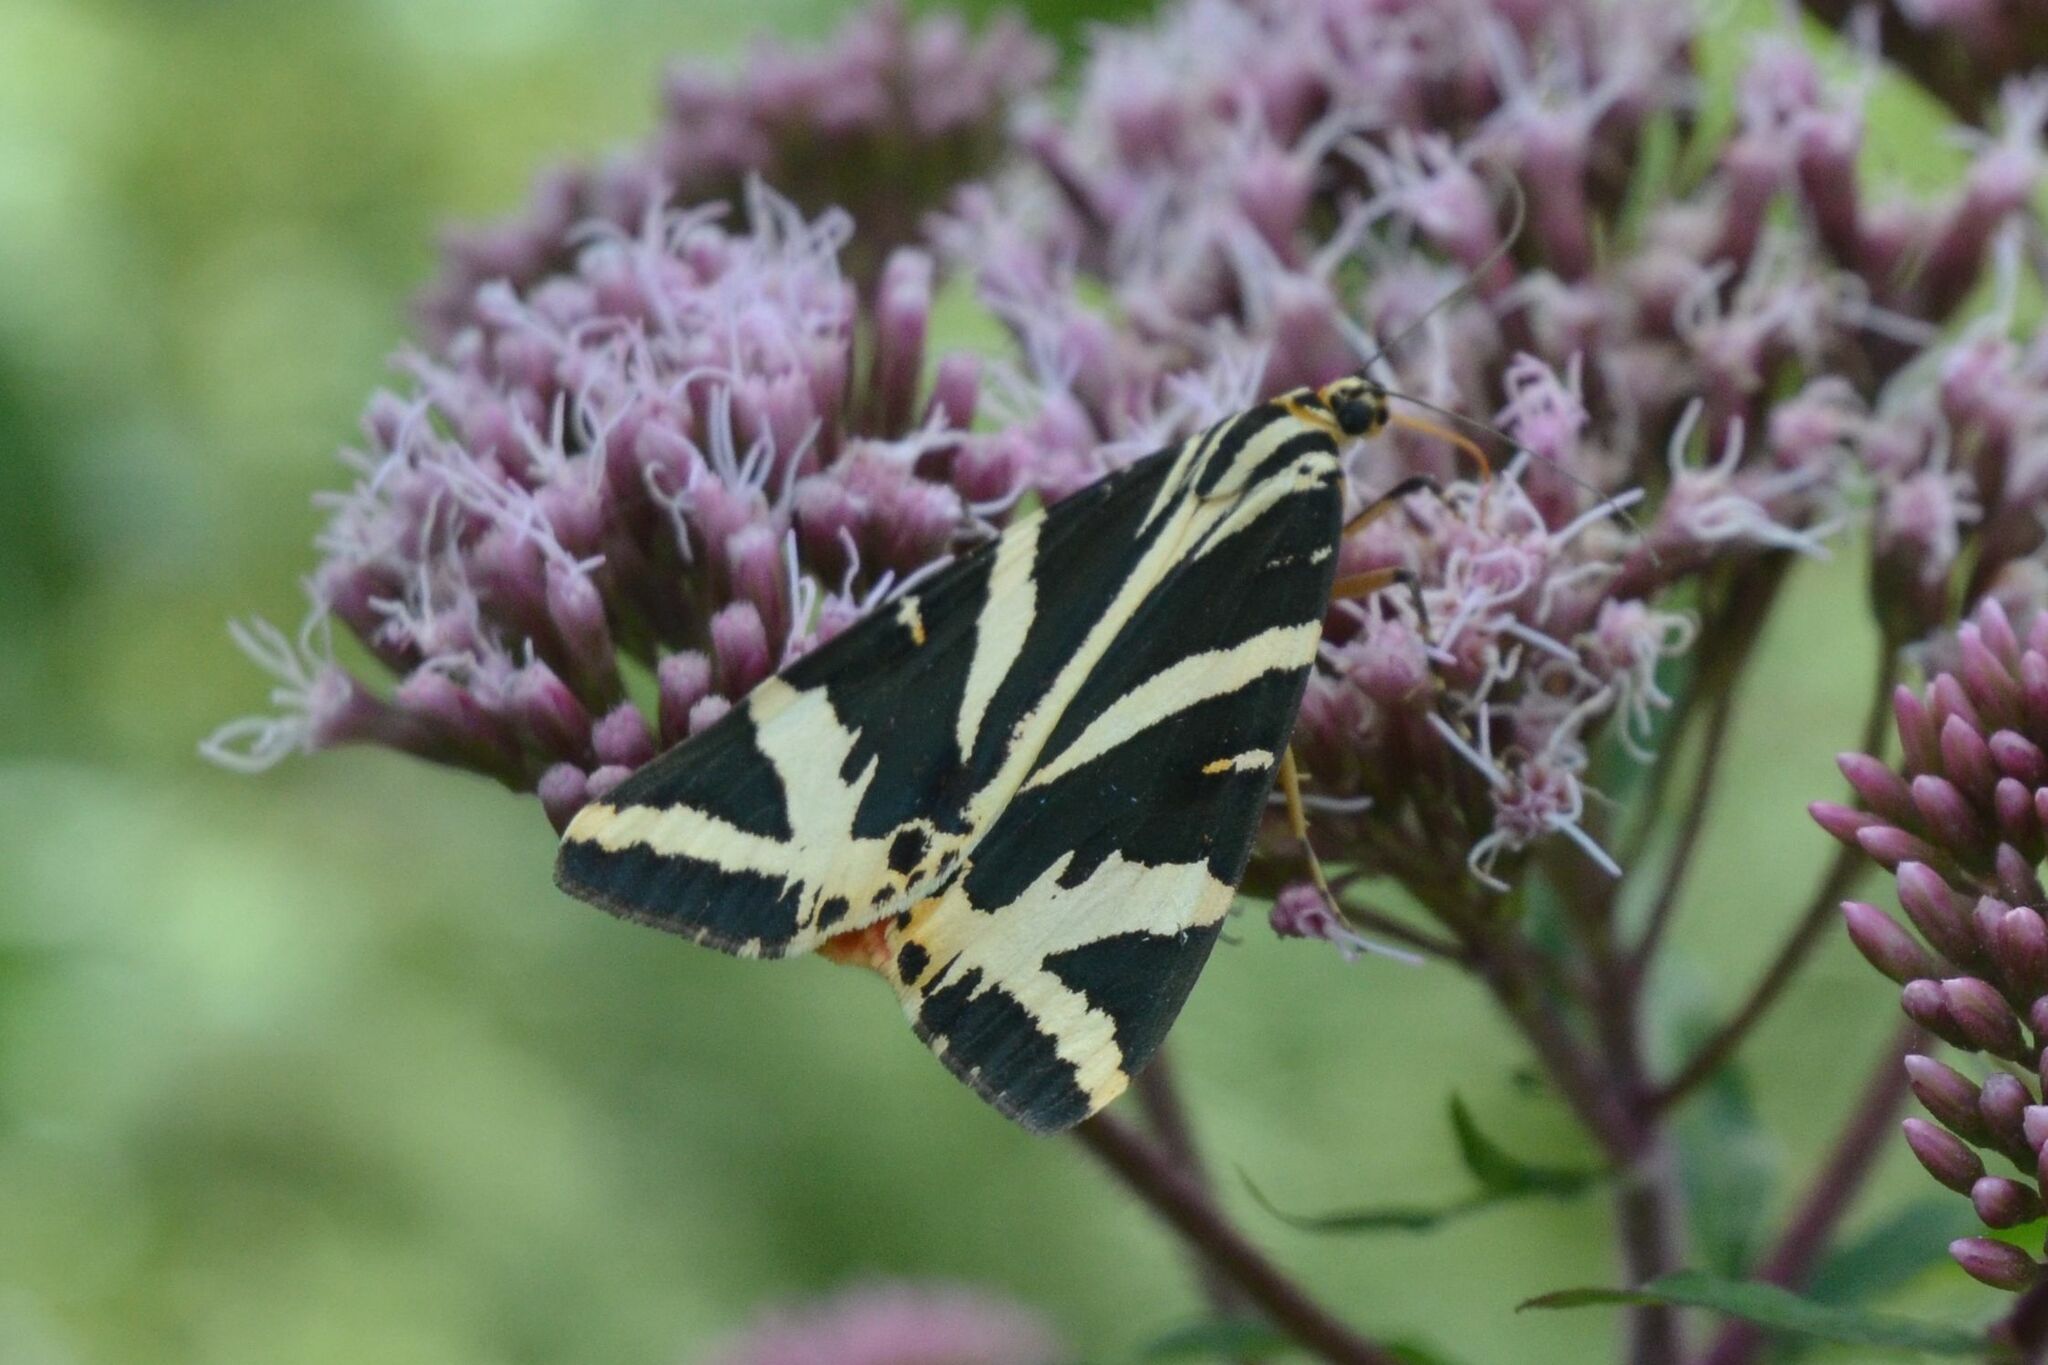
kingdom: Animalia
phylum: Arthropoda
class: Insecta
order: Lepidoptera
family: Erebidae
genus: Euplagia
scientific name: Euplagia quadripunctaria
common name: Jersey tiger
